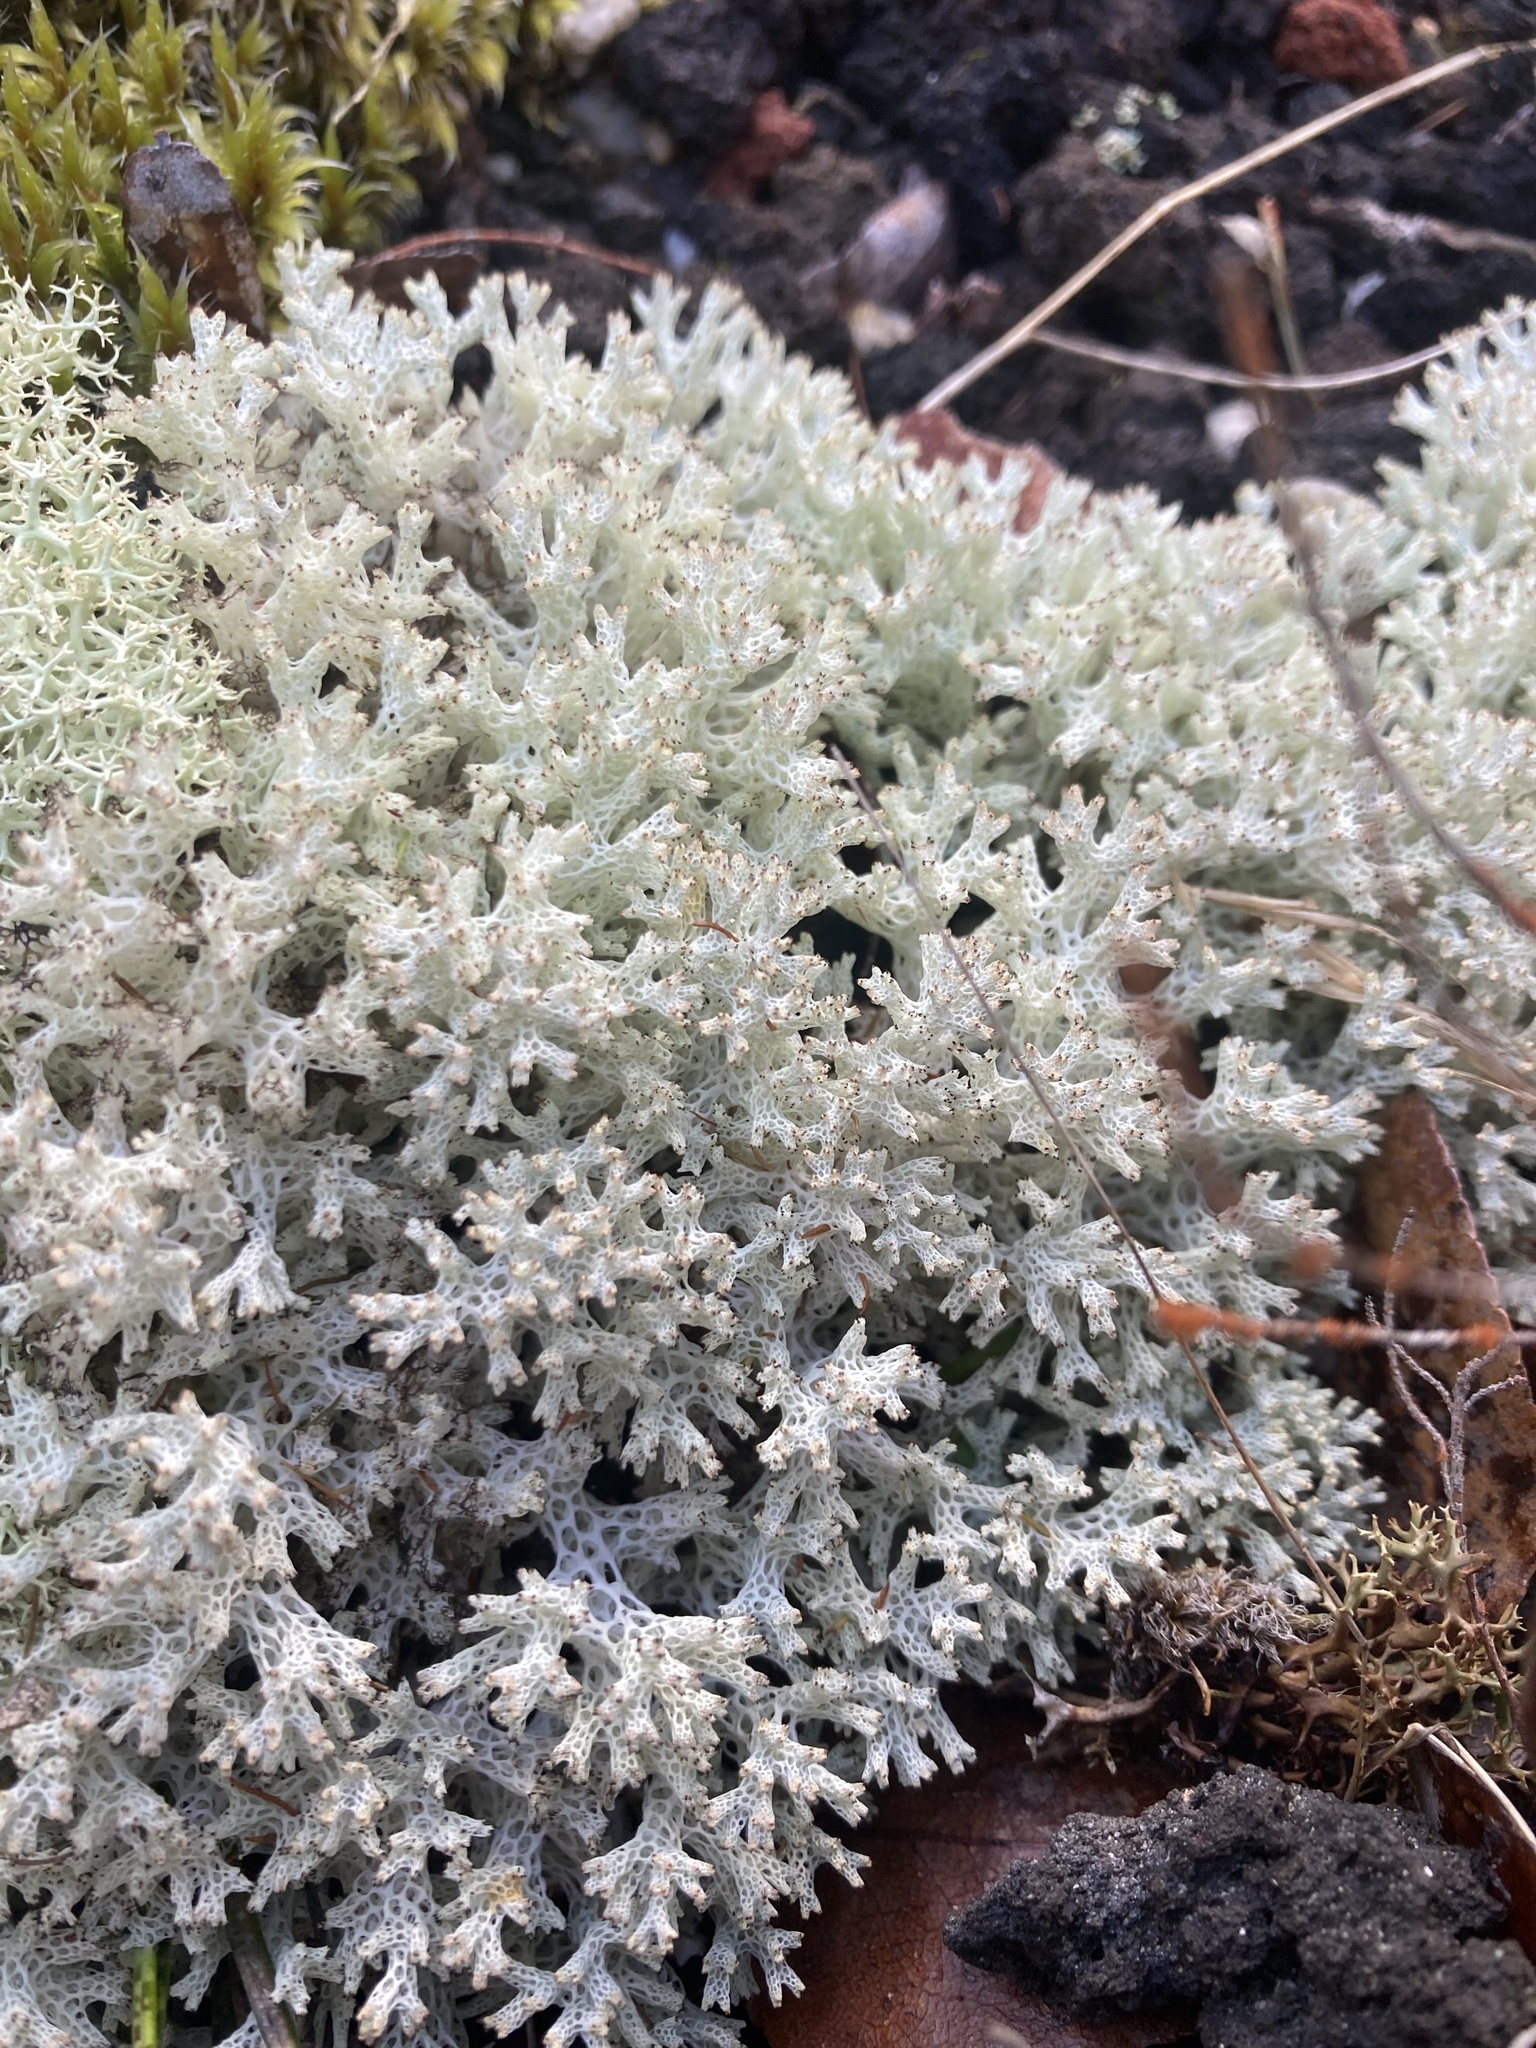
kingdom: Fungi
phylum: Ascomycota
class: Lecanoromycetes
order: Lecanorales
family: Cladoniaceae
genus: Pulchrocladia
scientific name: Pulchrocladia retipora
